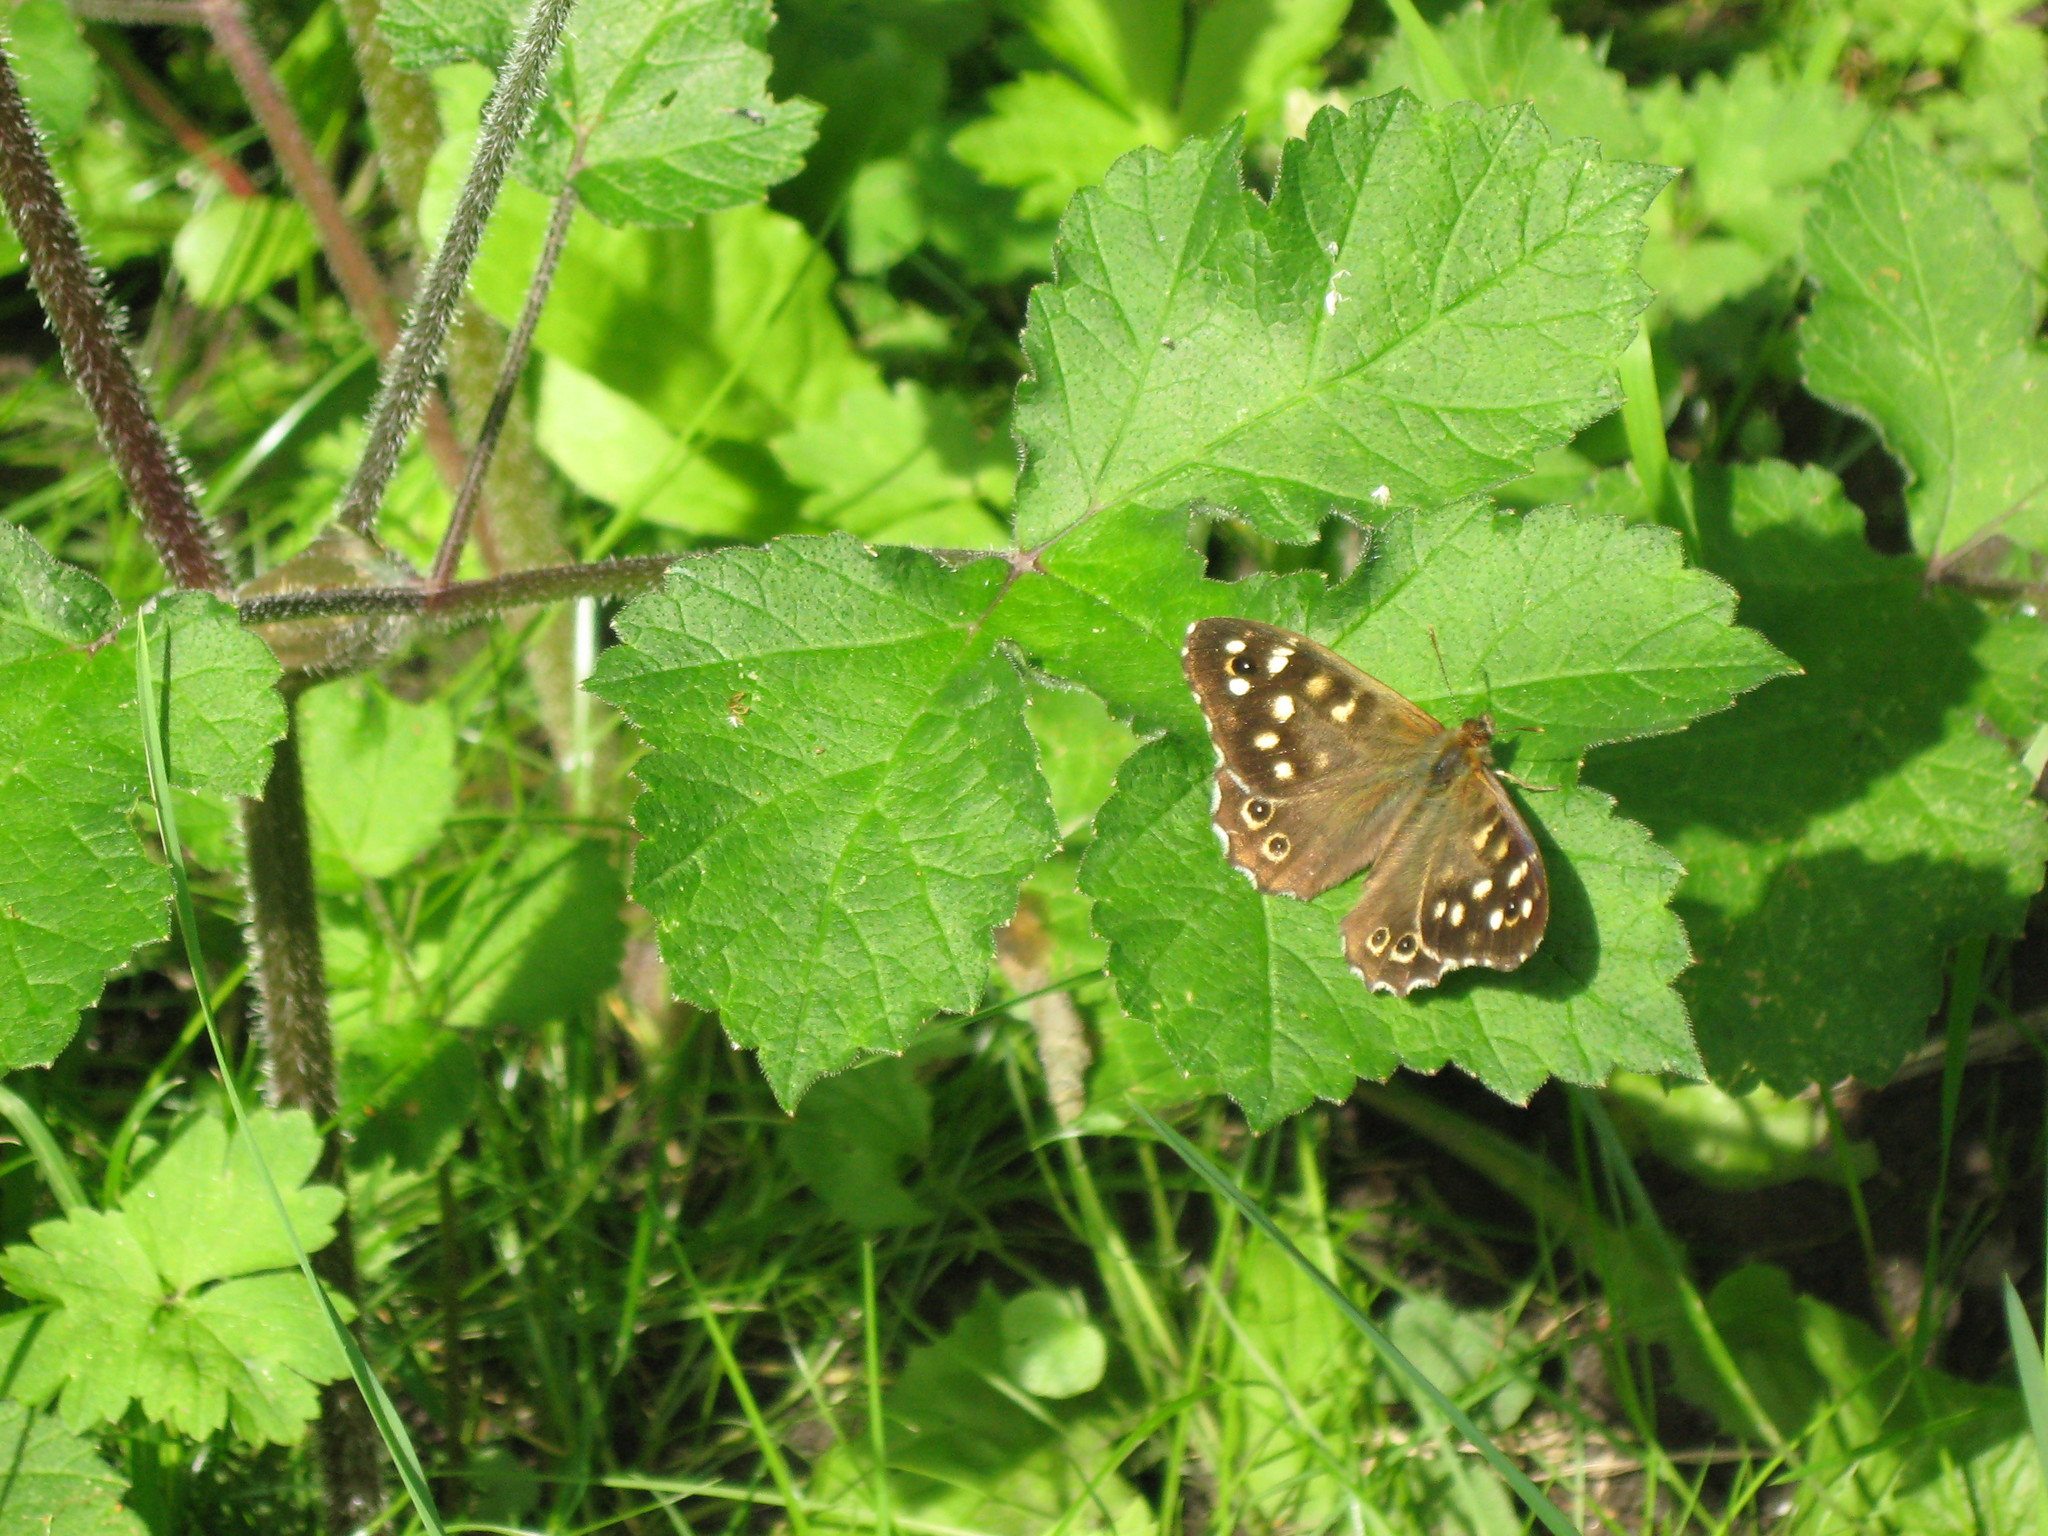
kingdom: Animalia
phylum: Arthropoda
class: Insecta
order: Lepidoptera
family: Nymphalidae
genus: Pararge
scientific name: Pararge aegeria
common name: Speckled wood
